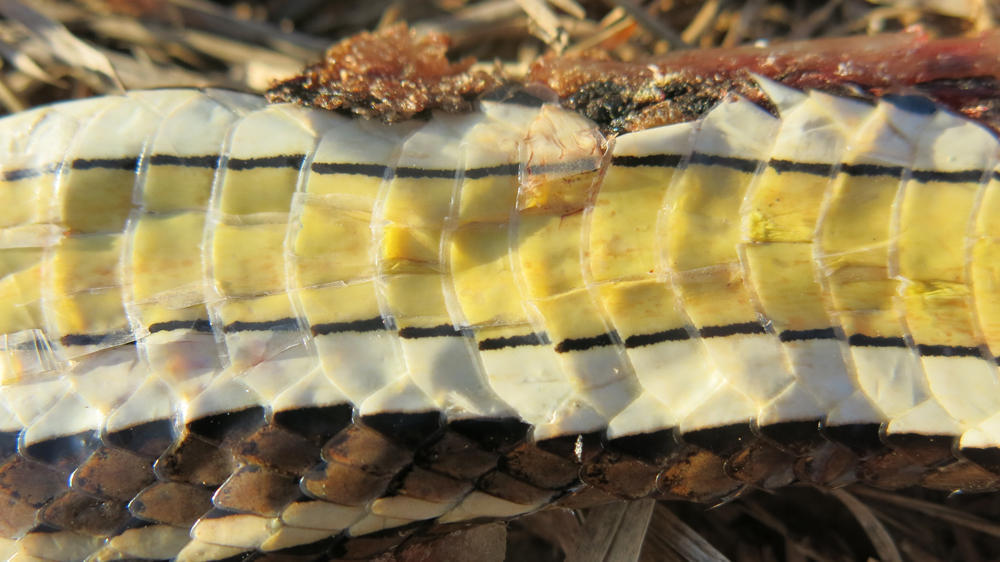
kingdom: Animalia
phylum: Chordata
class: Squamata
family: Psammophiidae
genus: Psammophis
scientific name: Psammophis subtaeniatus
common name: Stripe-bellied sand snake
